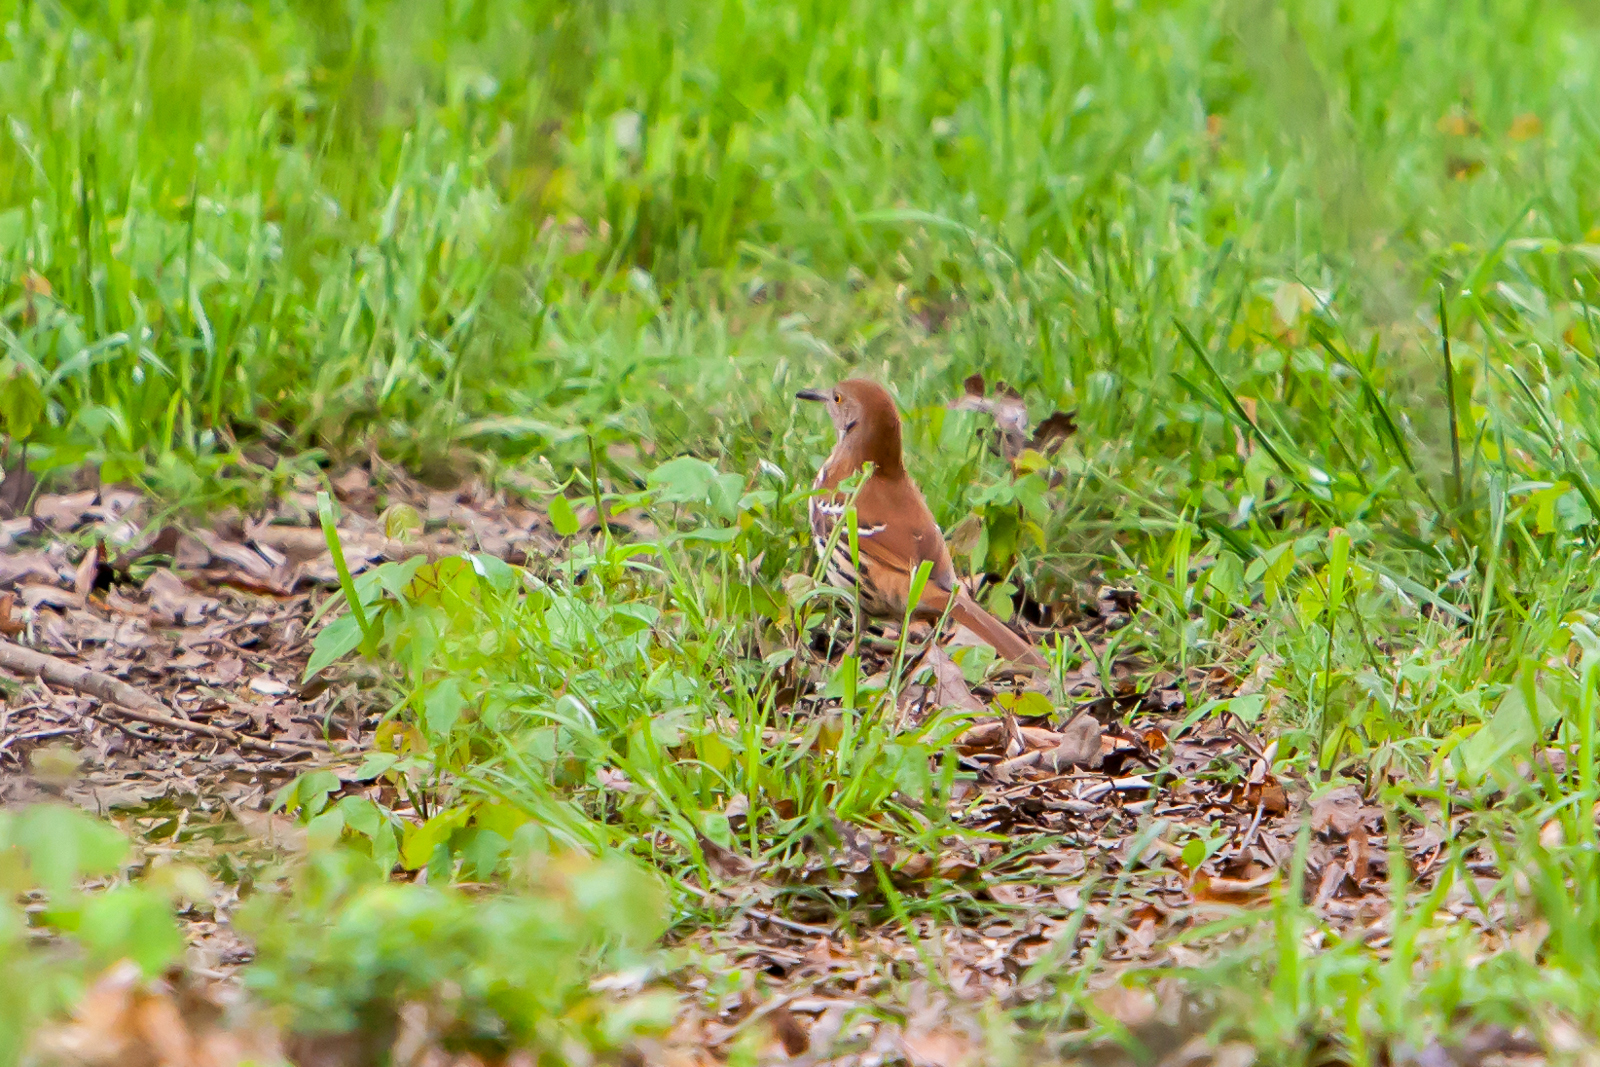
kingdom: Animalia
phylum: Chordata
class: Aves
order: Passeriformes
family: Mimidae
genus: Toxostoma
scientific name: Toxostoma rufum
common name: Brown thrasher
